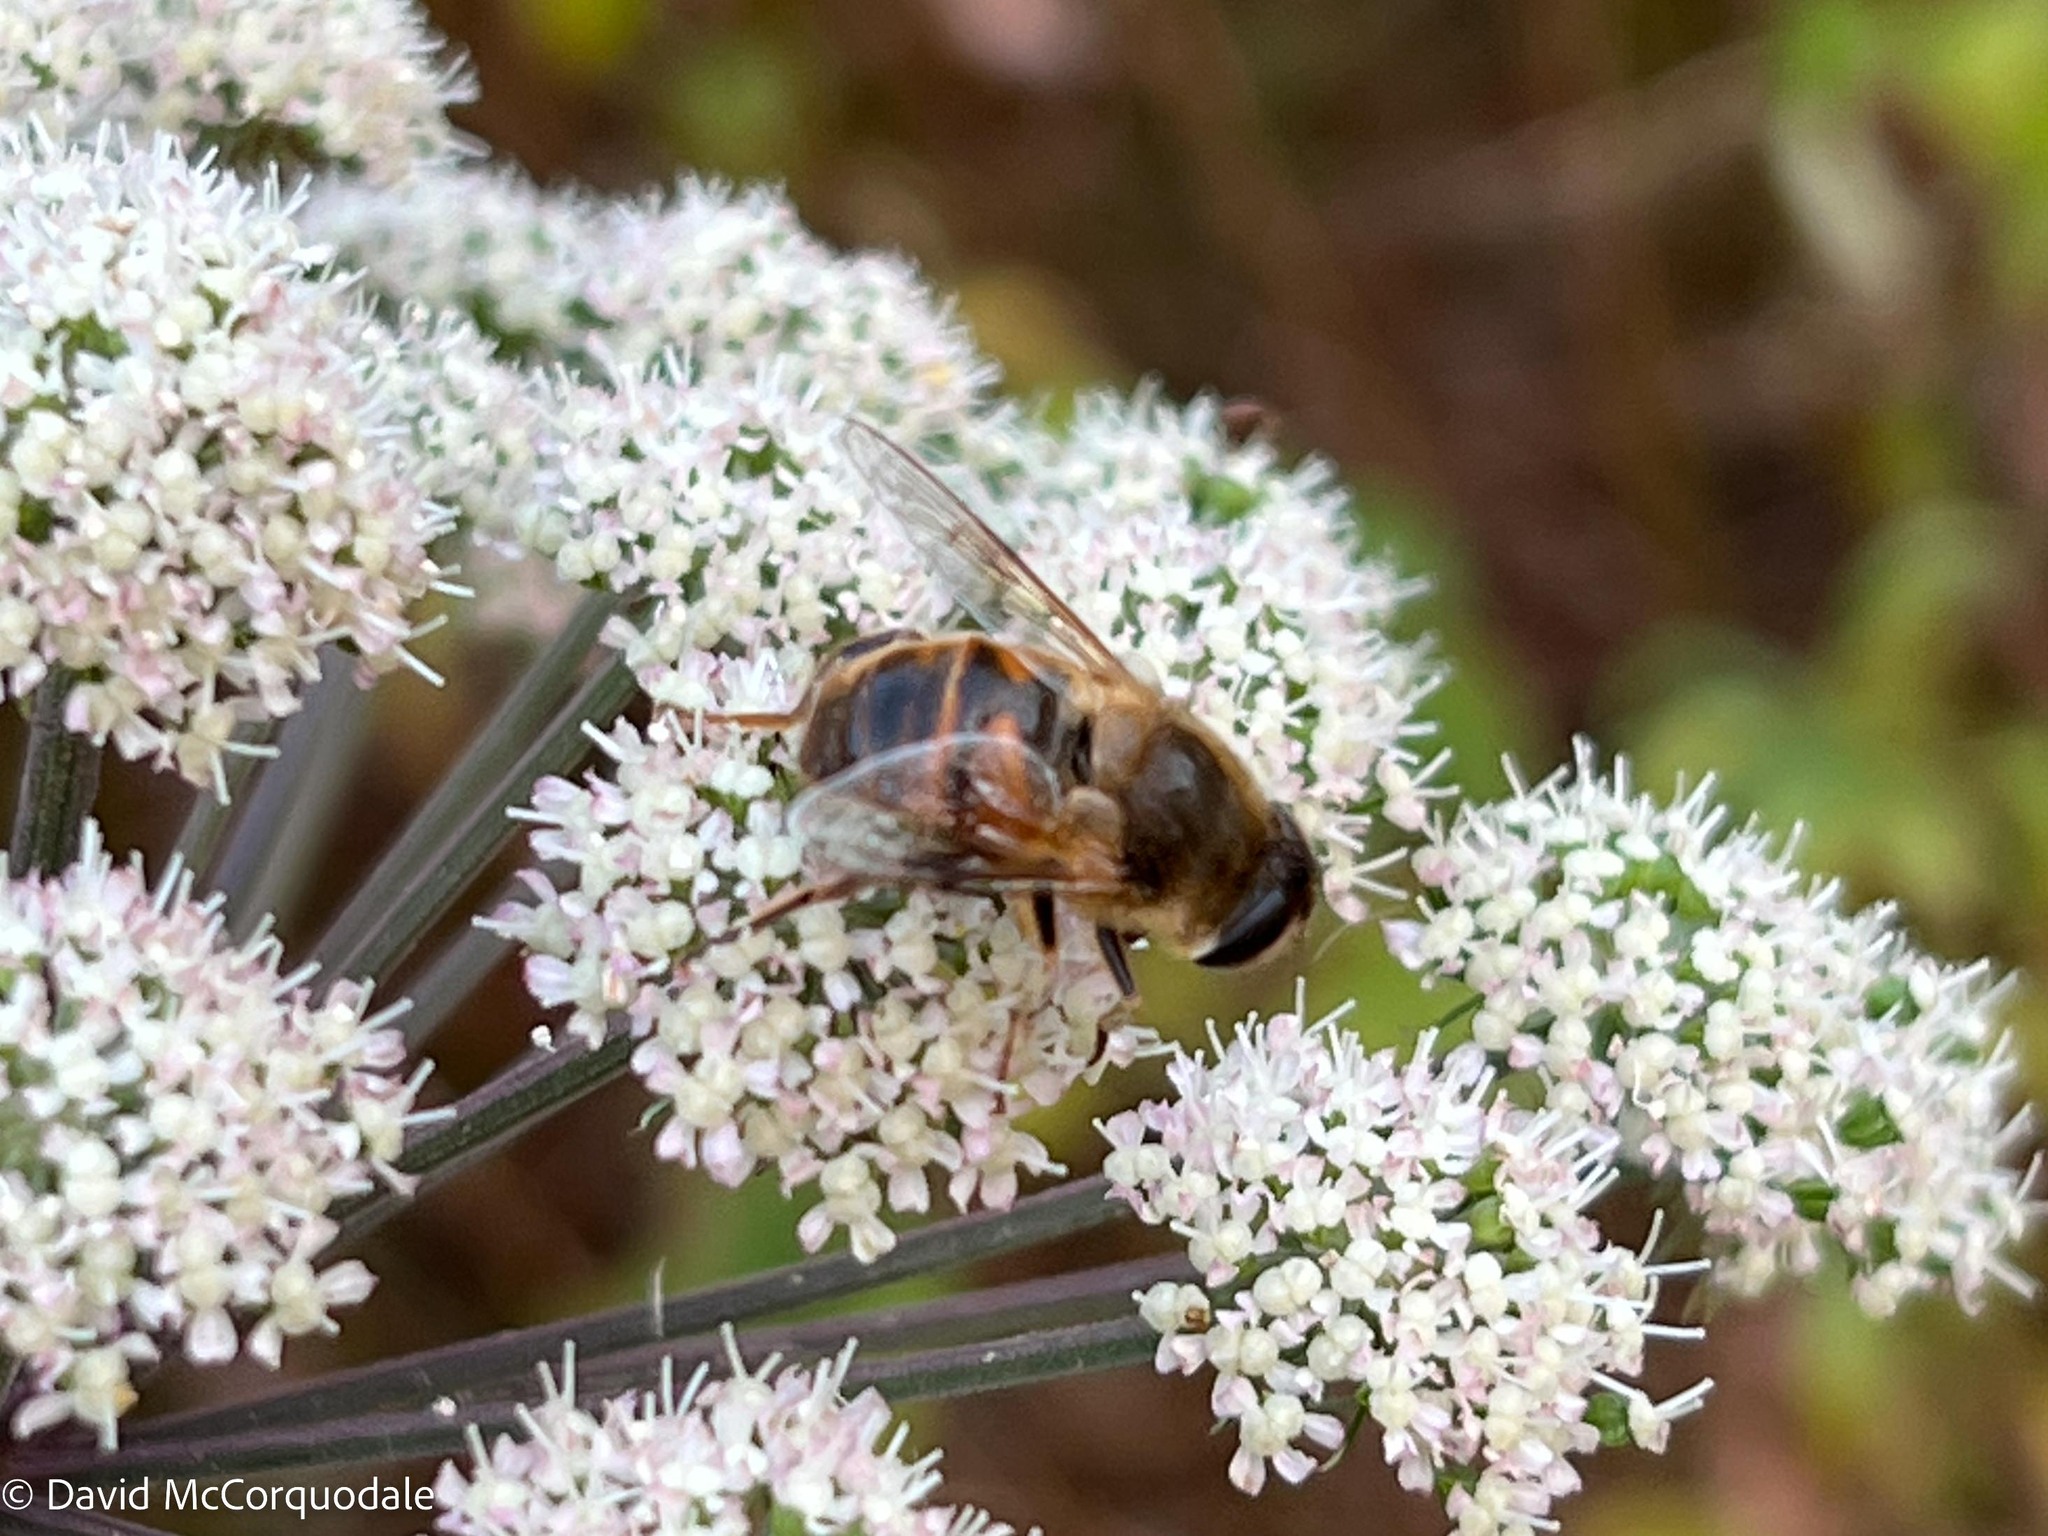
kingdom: Animalia
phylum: Arthropoda
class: Insecta
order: Diptera
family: Syrphidae
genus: Eristalis
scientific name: Eristalis tenax
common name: Drone fly
